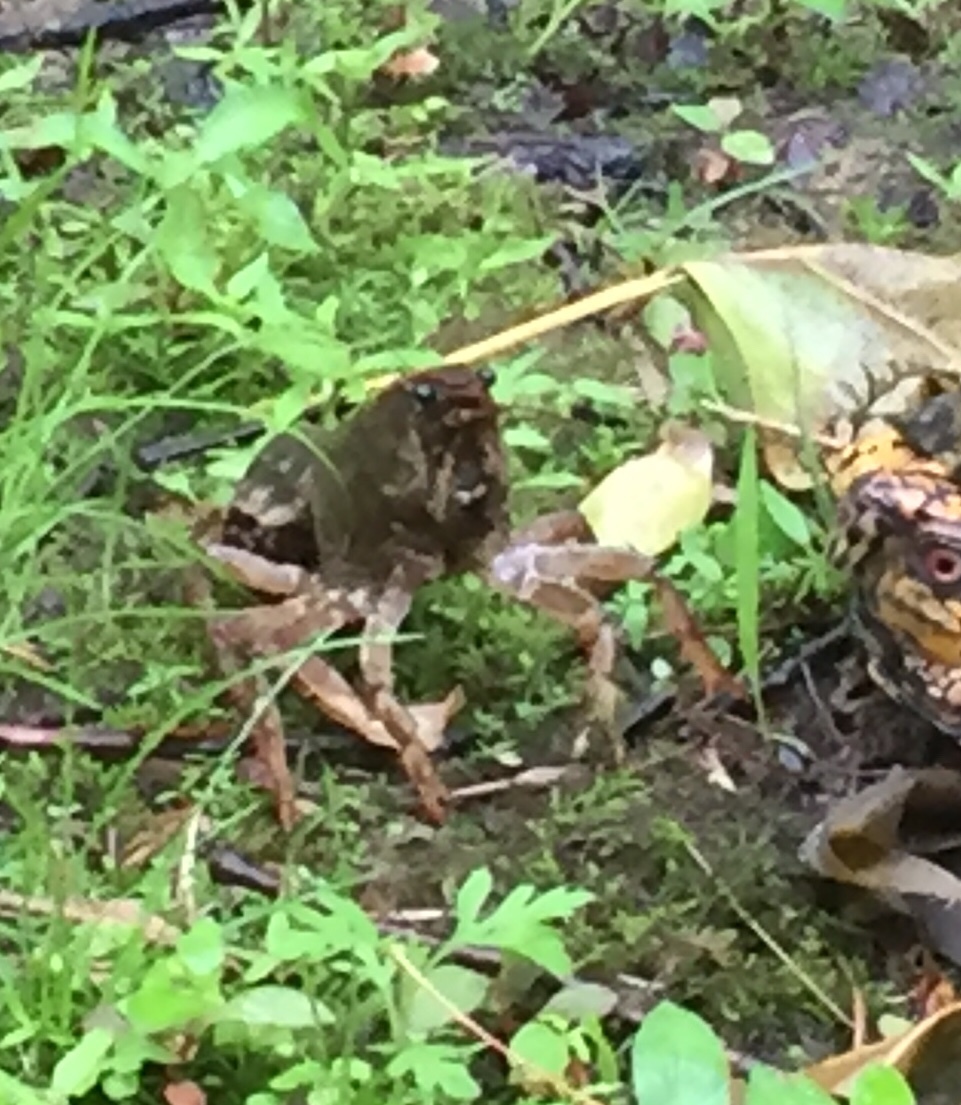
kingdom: Animalia
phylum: Arthropoda
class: Malacostraca
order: Decapoda
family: Cambaridae
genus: Lacunicambarus
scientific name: Lacunicambarus polychromatus
